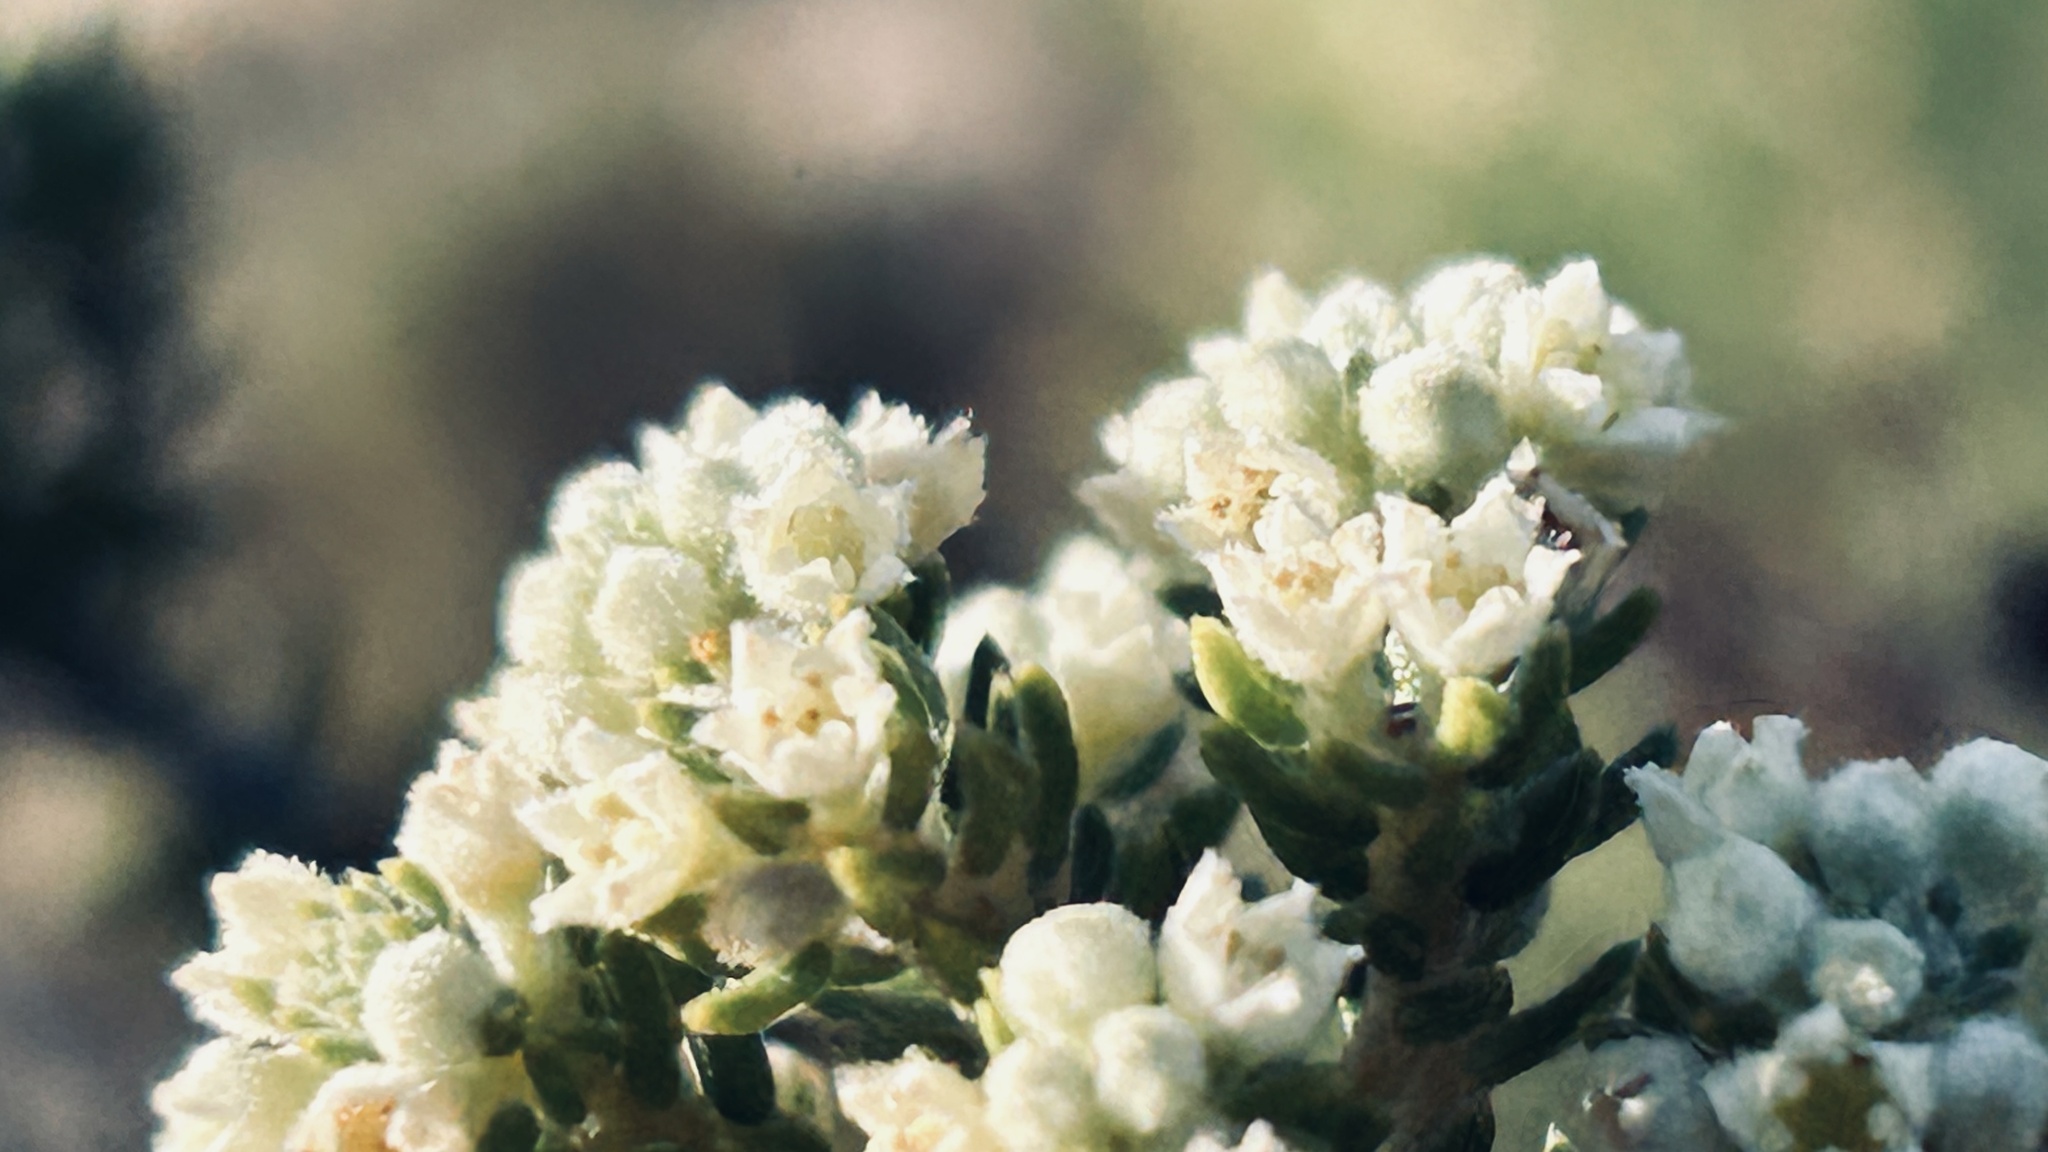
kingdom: Plantae
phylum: Tracheophyta
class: Magnoliopsida
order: Rosales
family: Rhamnaceae
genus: Phylica
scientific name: Phylica axillaris
